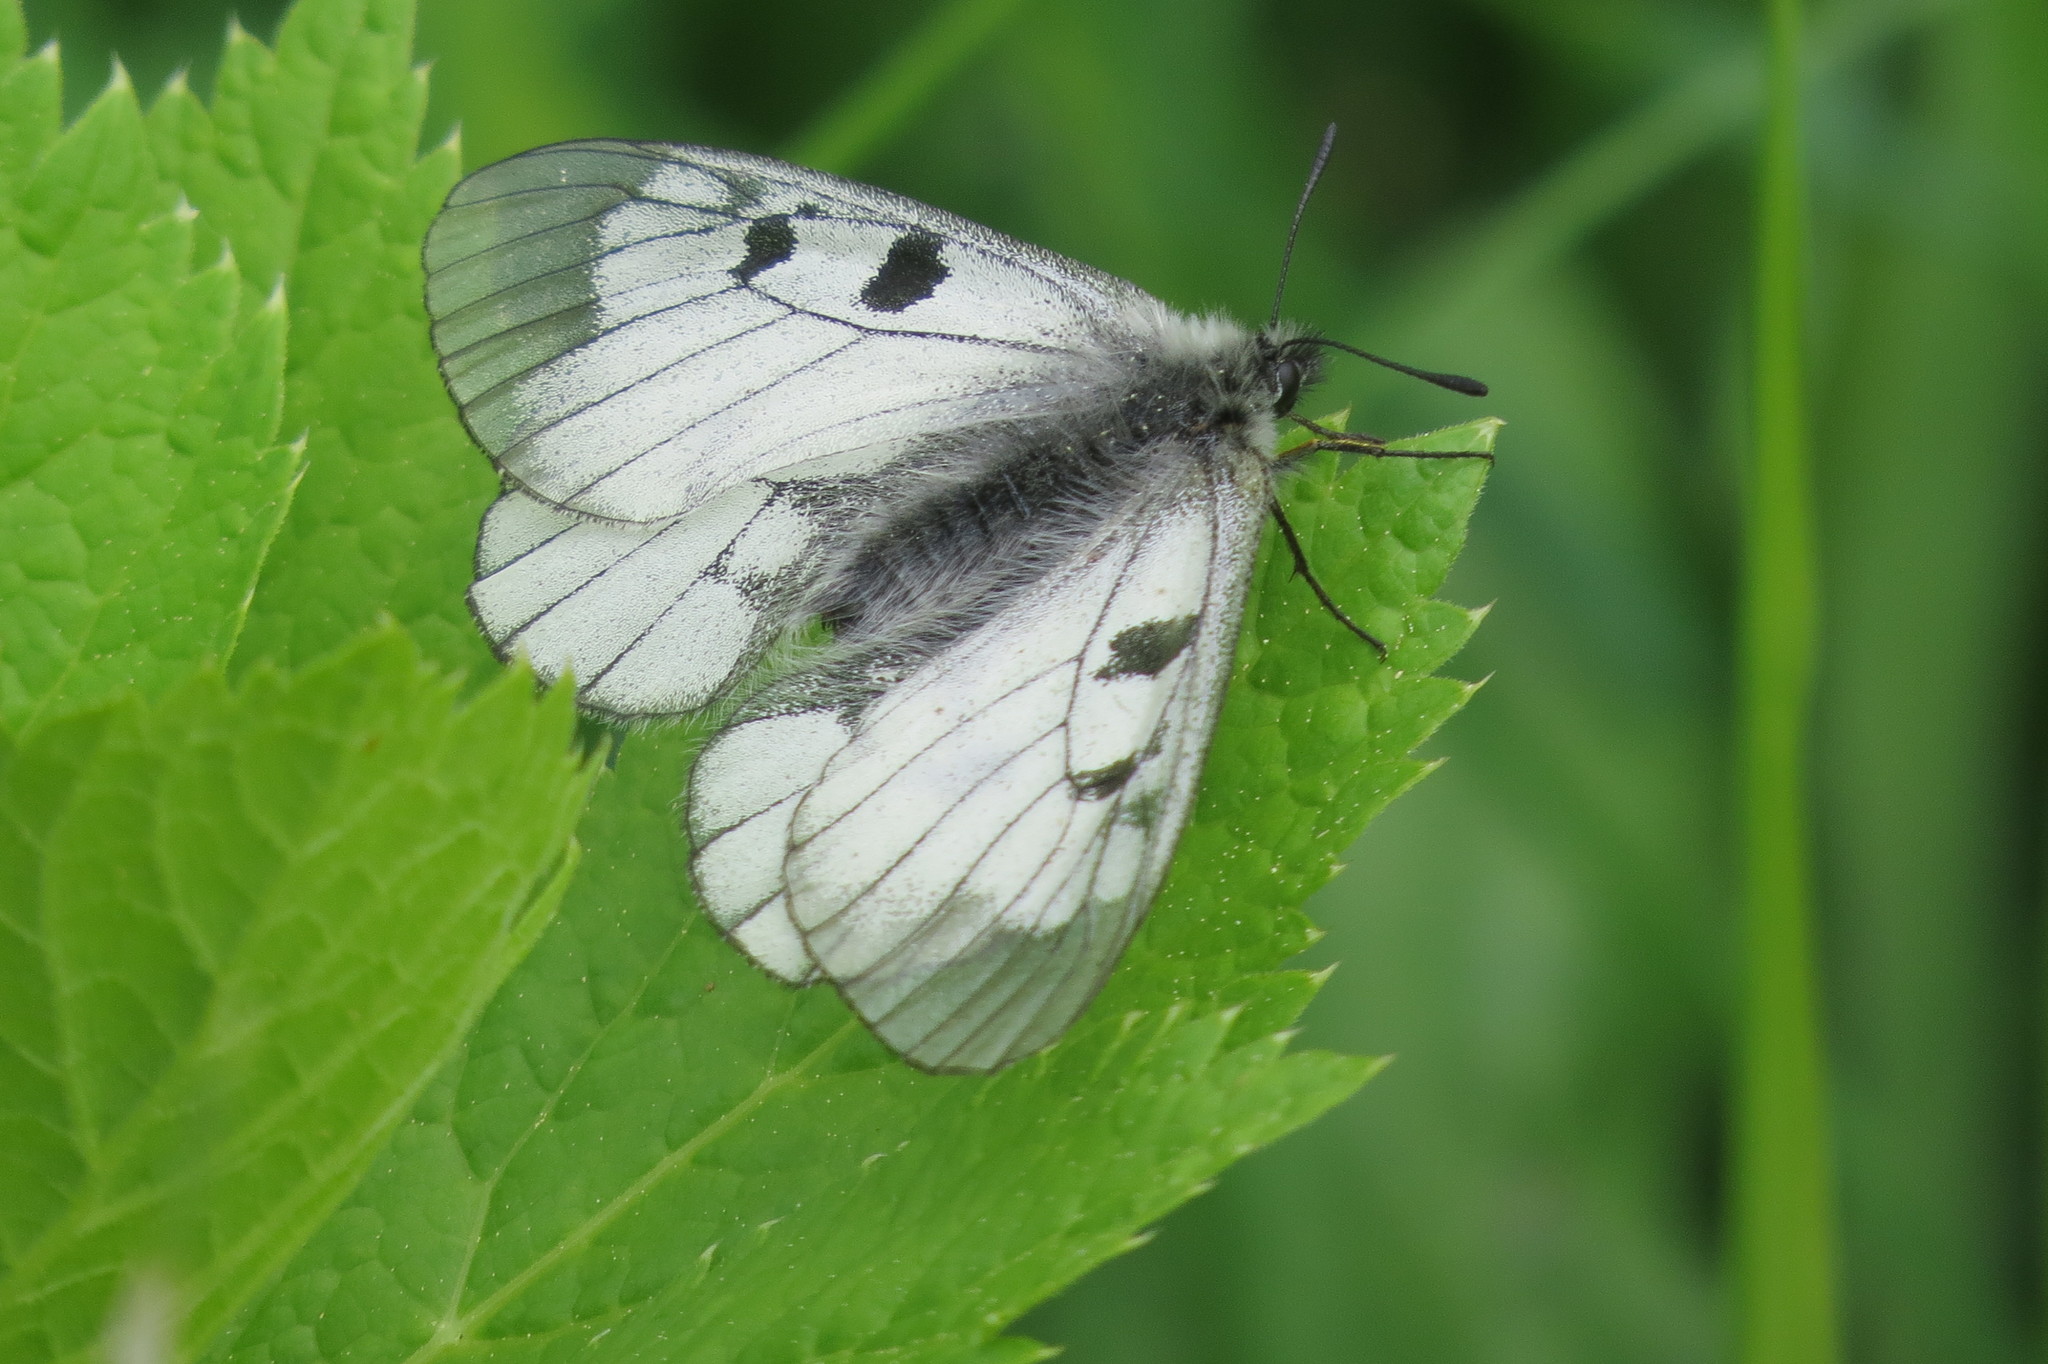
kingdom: Animalia
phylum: Arthropoda
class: Insecta
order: Lepidoptera
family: Papilionidae
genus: Parnassius
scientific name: Parnassius mnemosyne
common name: Clouded apollo
